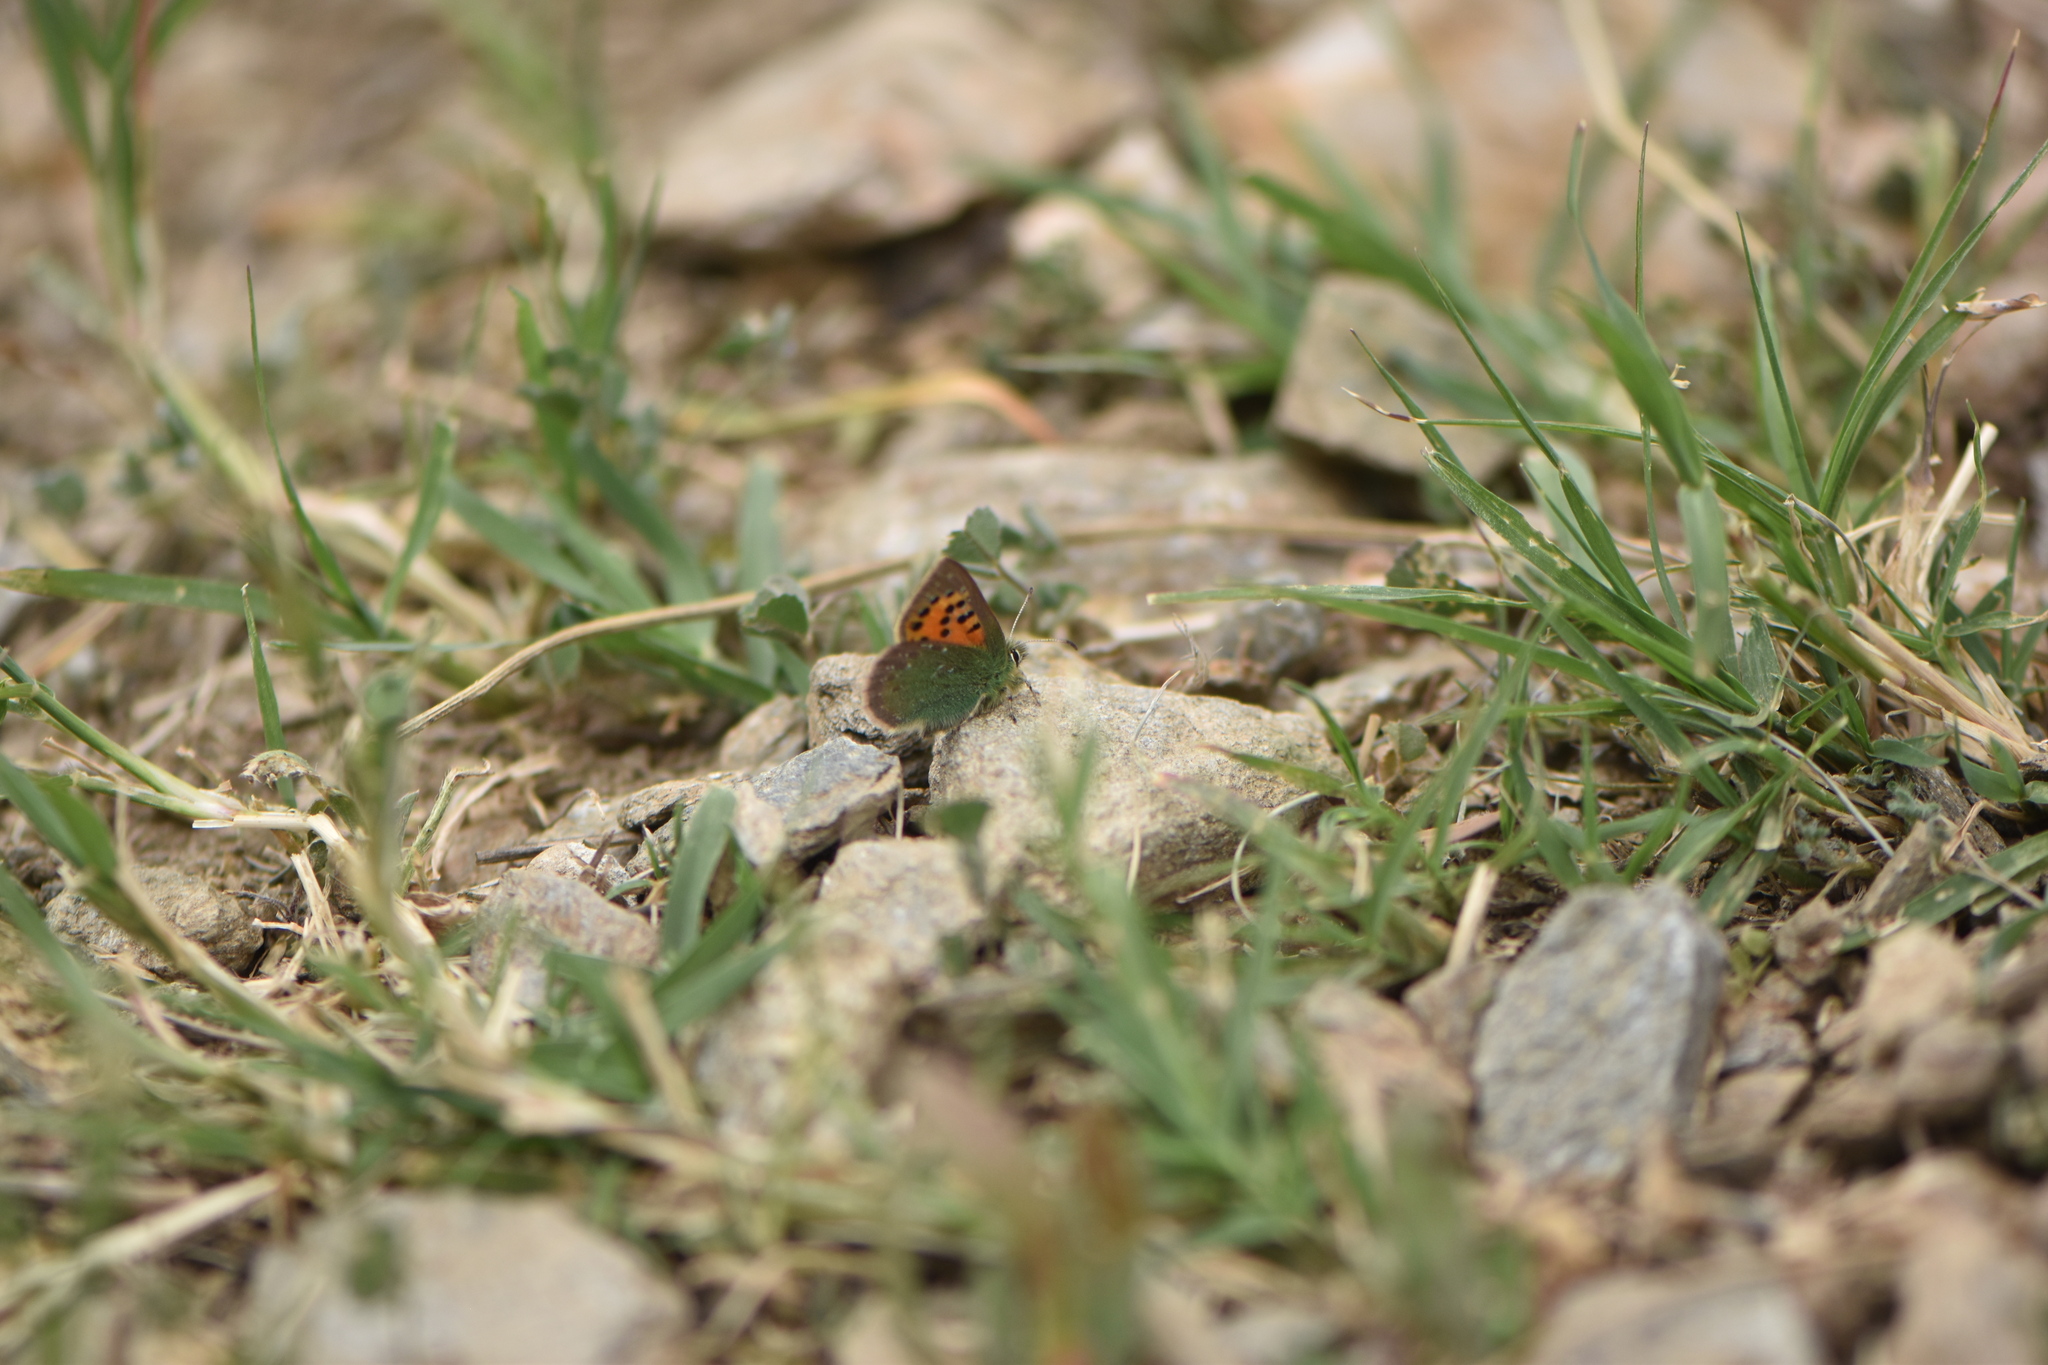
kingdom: Animalia
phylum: Arthropoda
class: Insecta
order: Lepidoptera
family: Lycaenidae
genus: Tomares
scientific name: Tomares ballus
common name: Provence hairstreak
